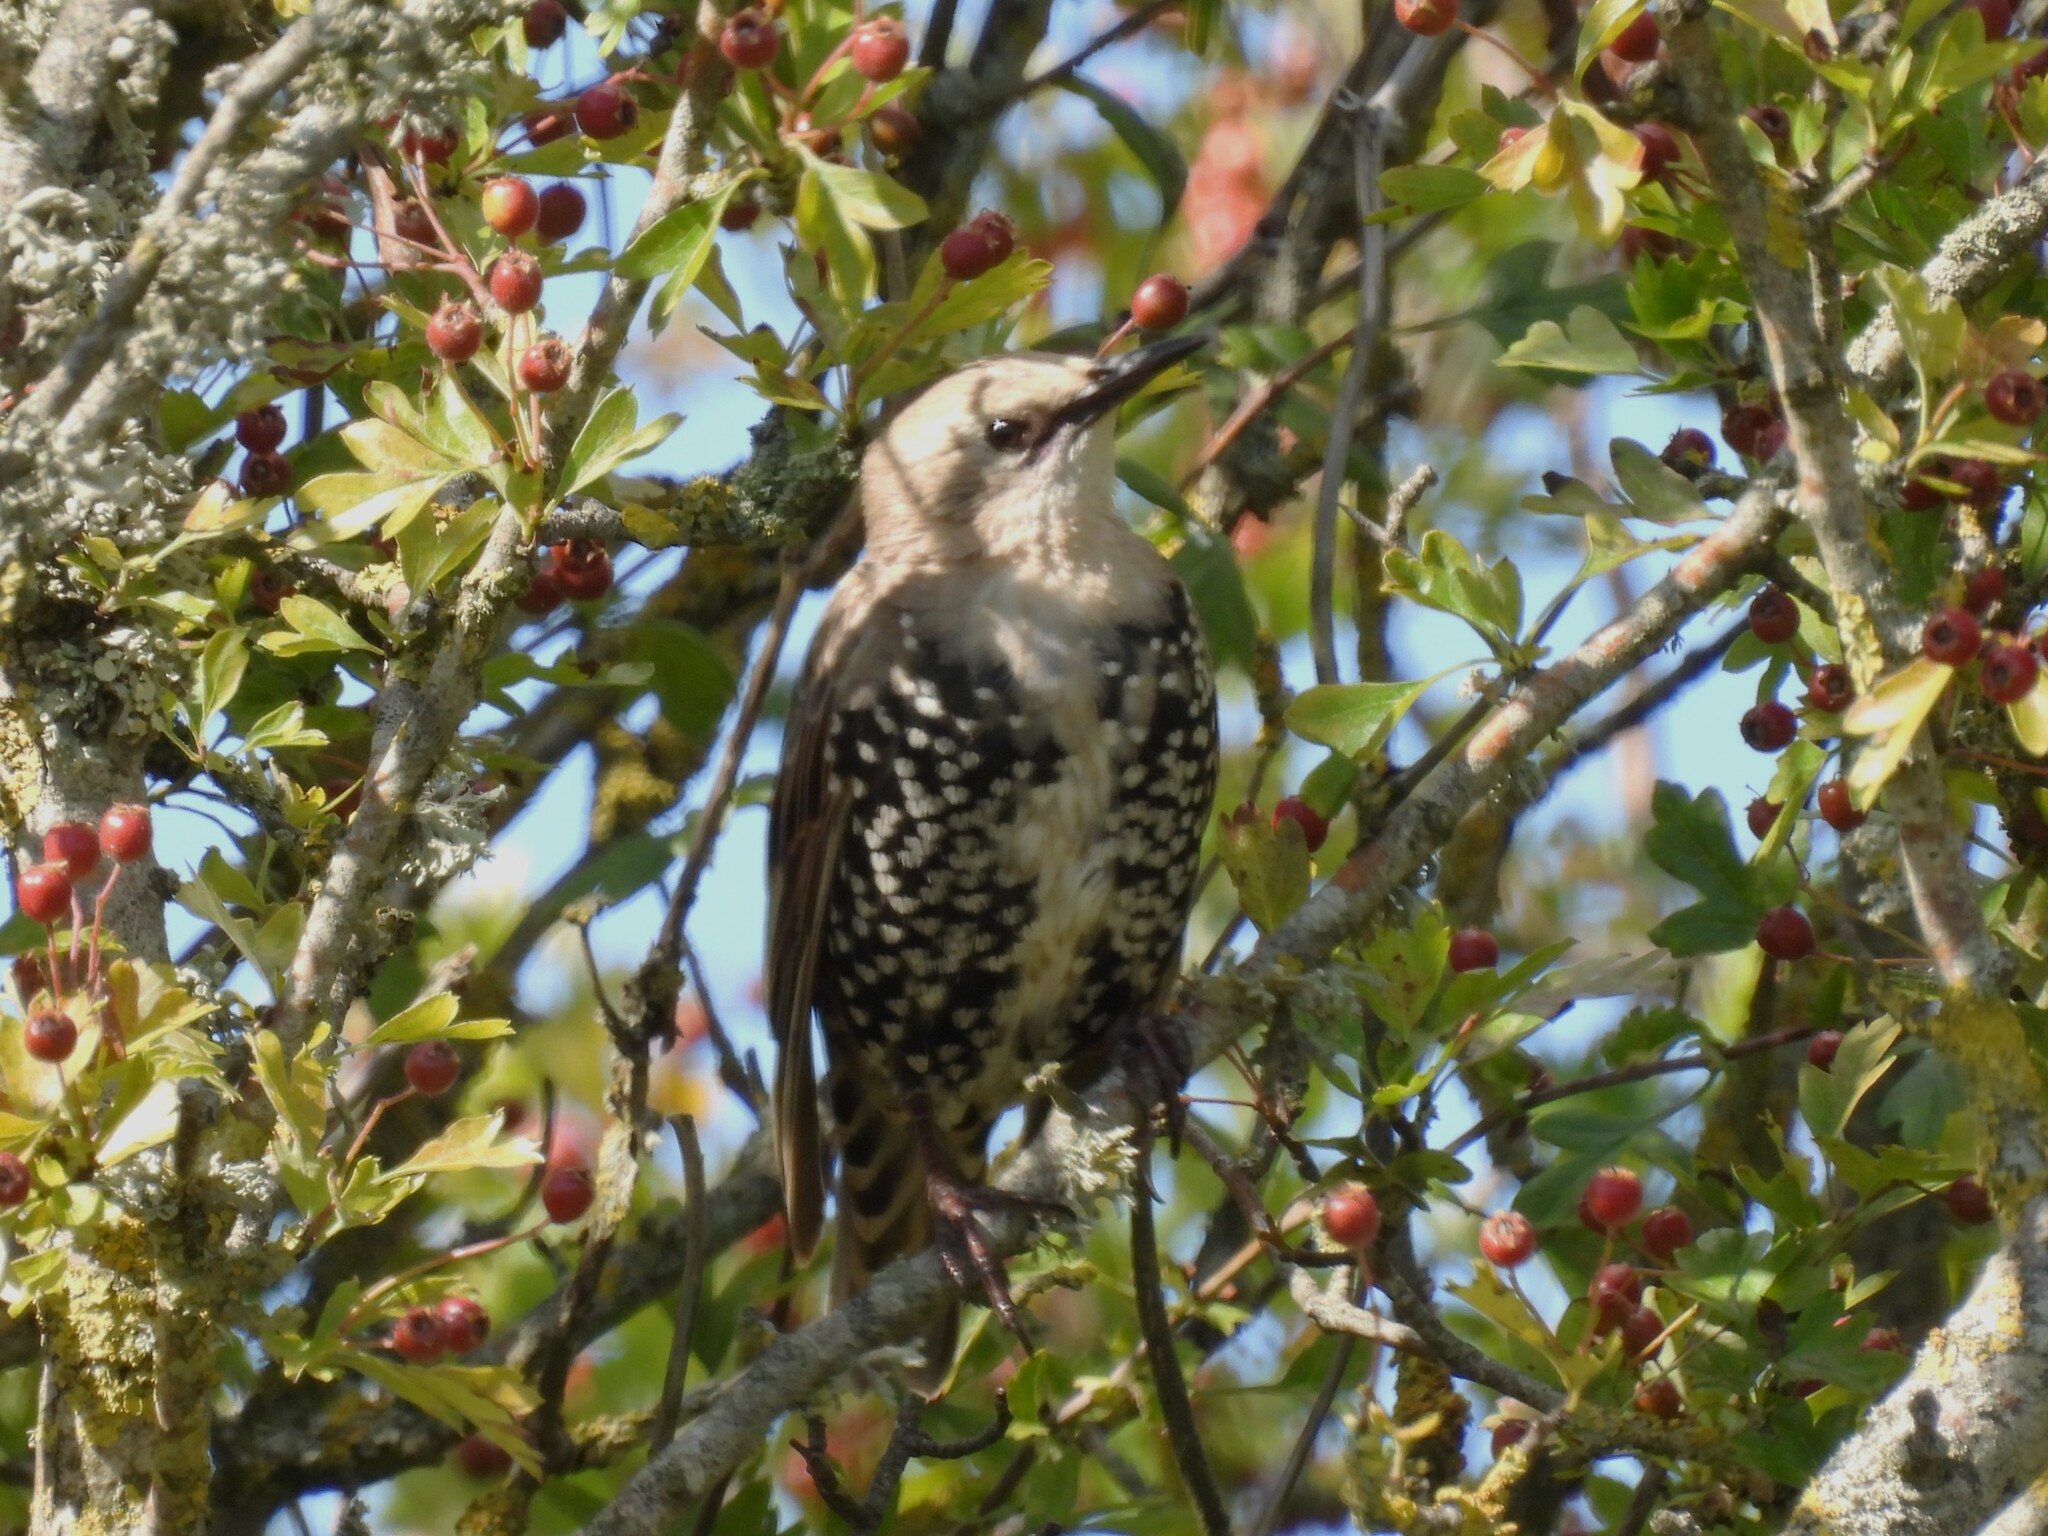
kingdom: Animalia
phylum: Chordata
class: Aves
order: Passeriformes
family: Sturnidae
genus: Sturnus
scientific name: Sturnus vulgaris
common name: Common starling
